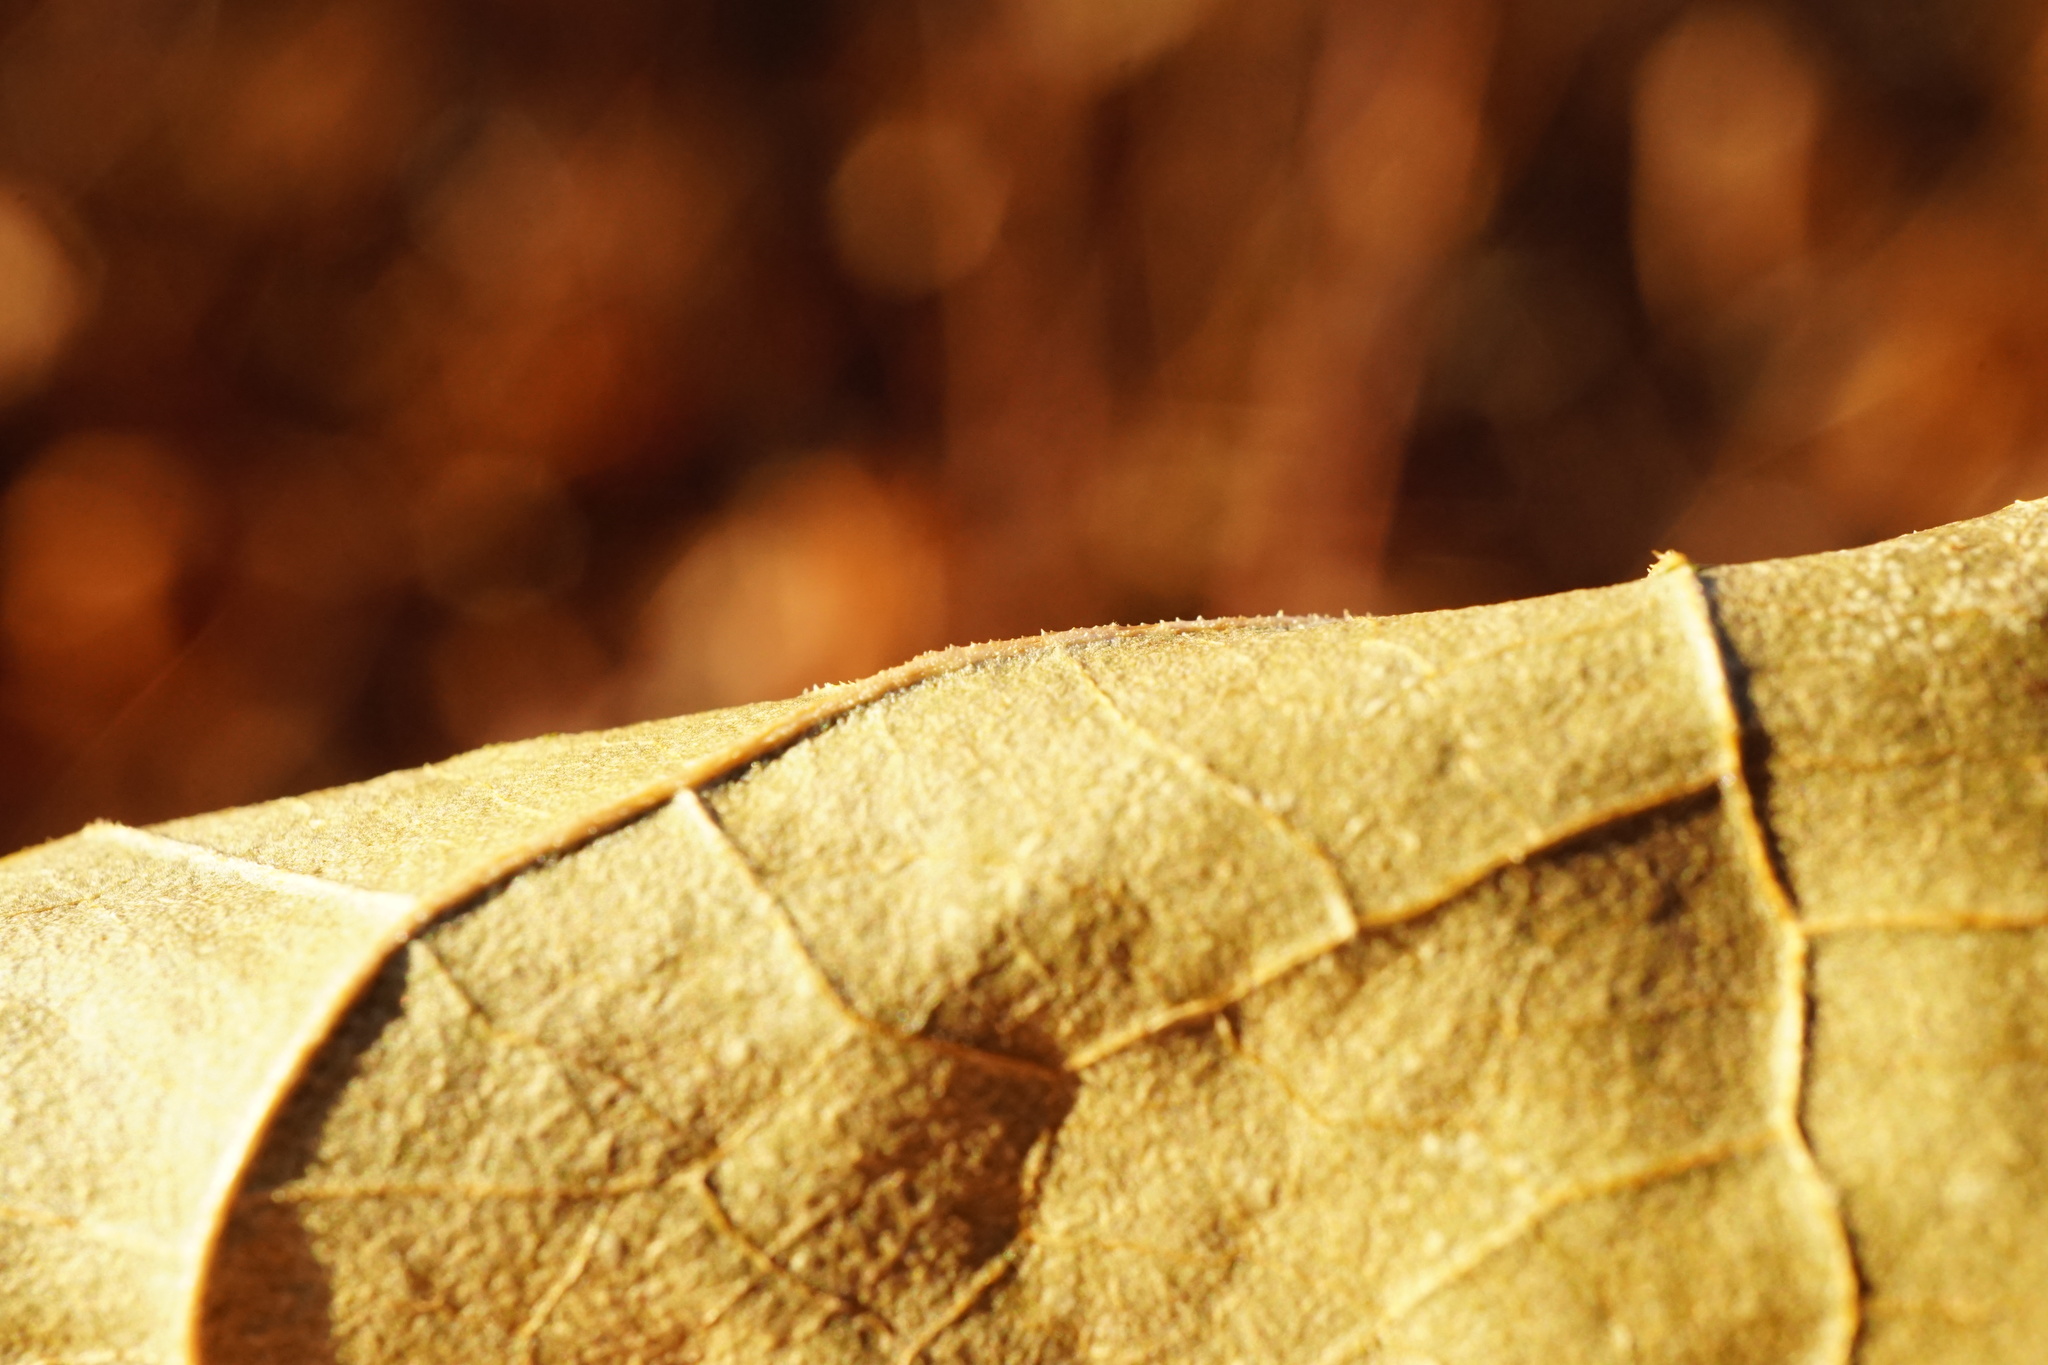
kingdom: Plantae
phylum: Tracheophyta
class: Magnoliopsida
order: Caryophyllales
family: Polygonaceae
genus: Reynoutria
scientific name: Reynoutria bohemica
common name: Bohemian knotweed
